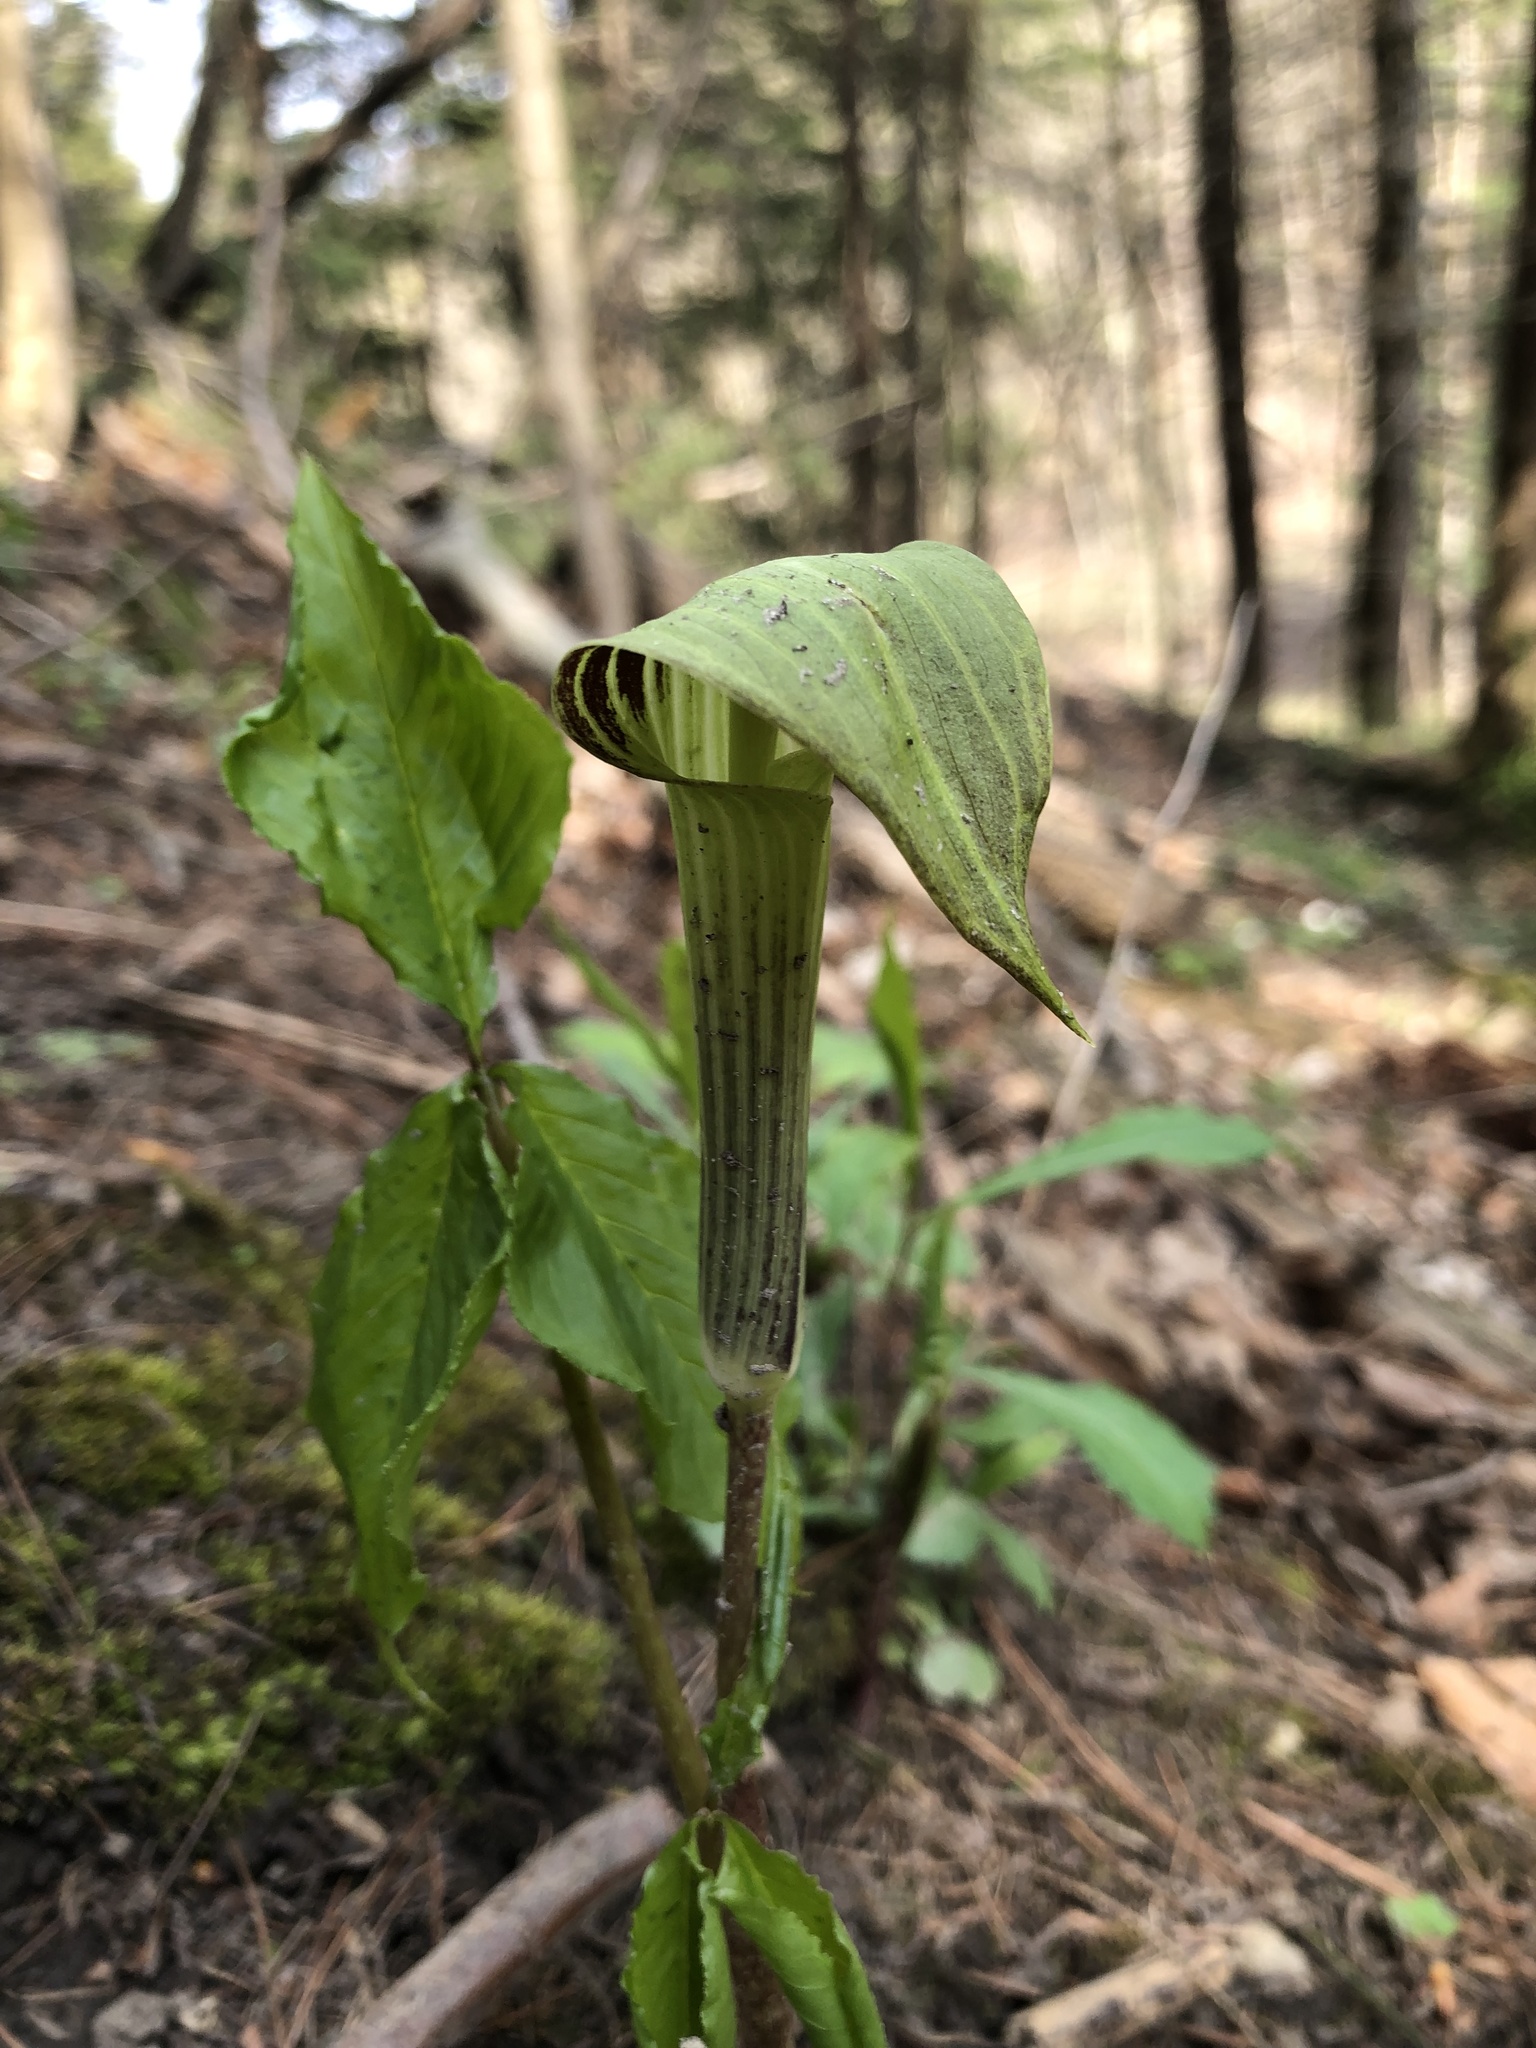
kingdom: Plantae
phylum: Tracheophyta
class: Liliopsida
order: Alismatales
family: Araceae
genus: Arisaema
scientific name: Arisaema triphyllum
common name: Jack-in-the-pulpit
